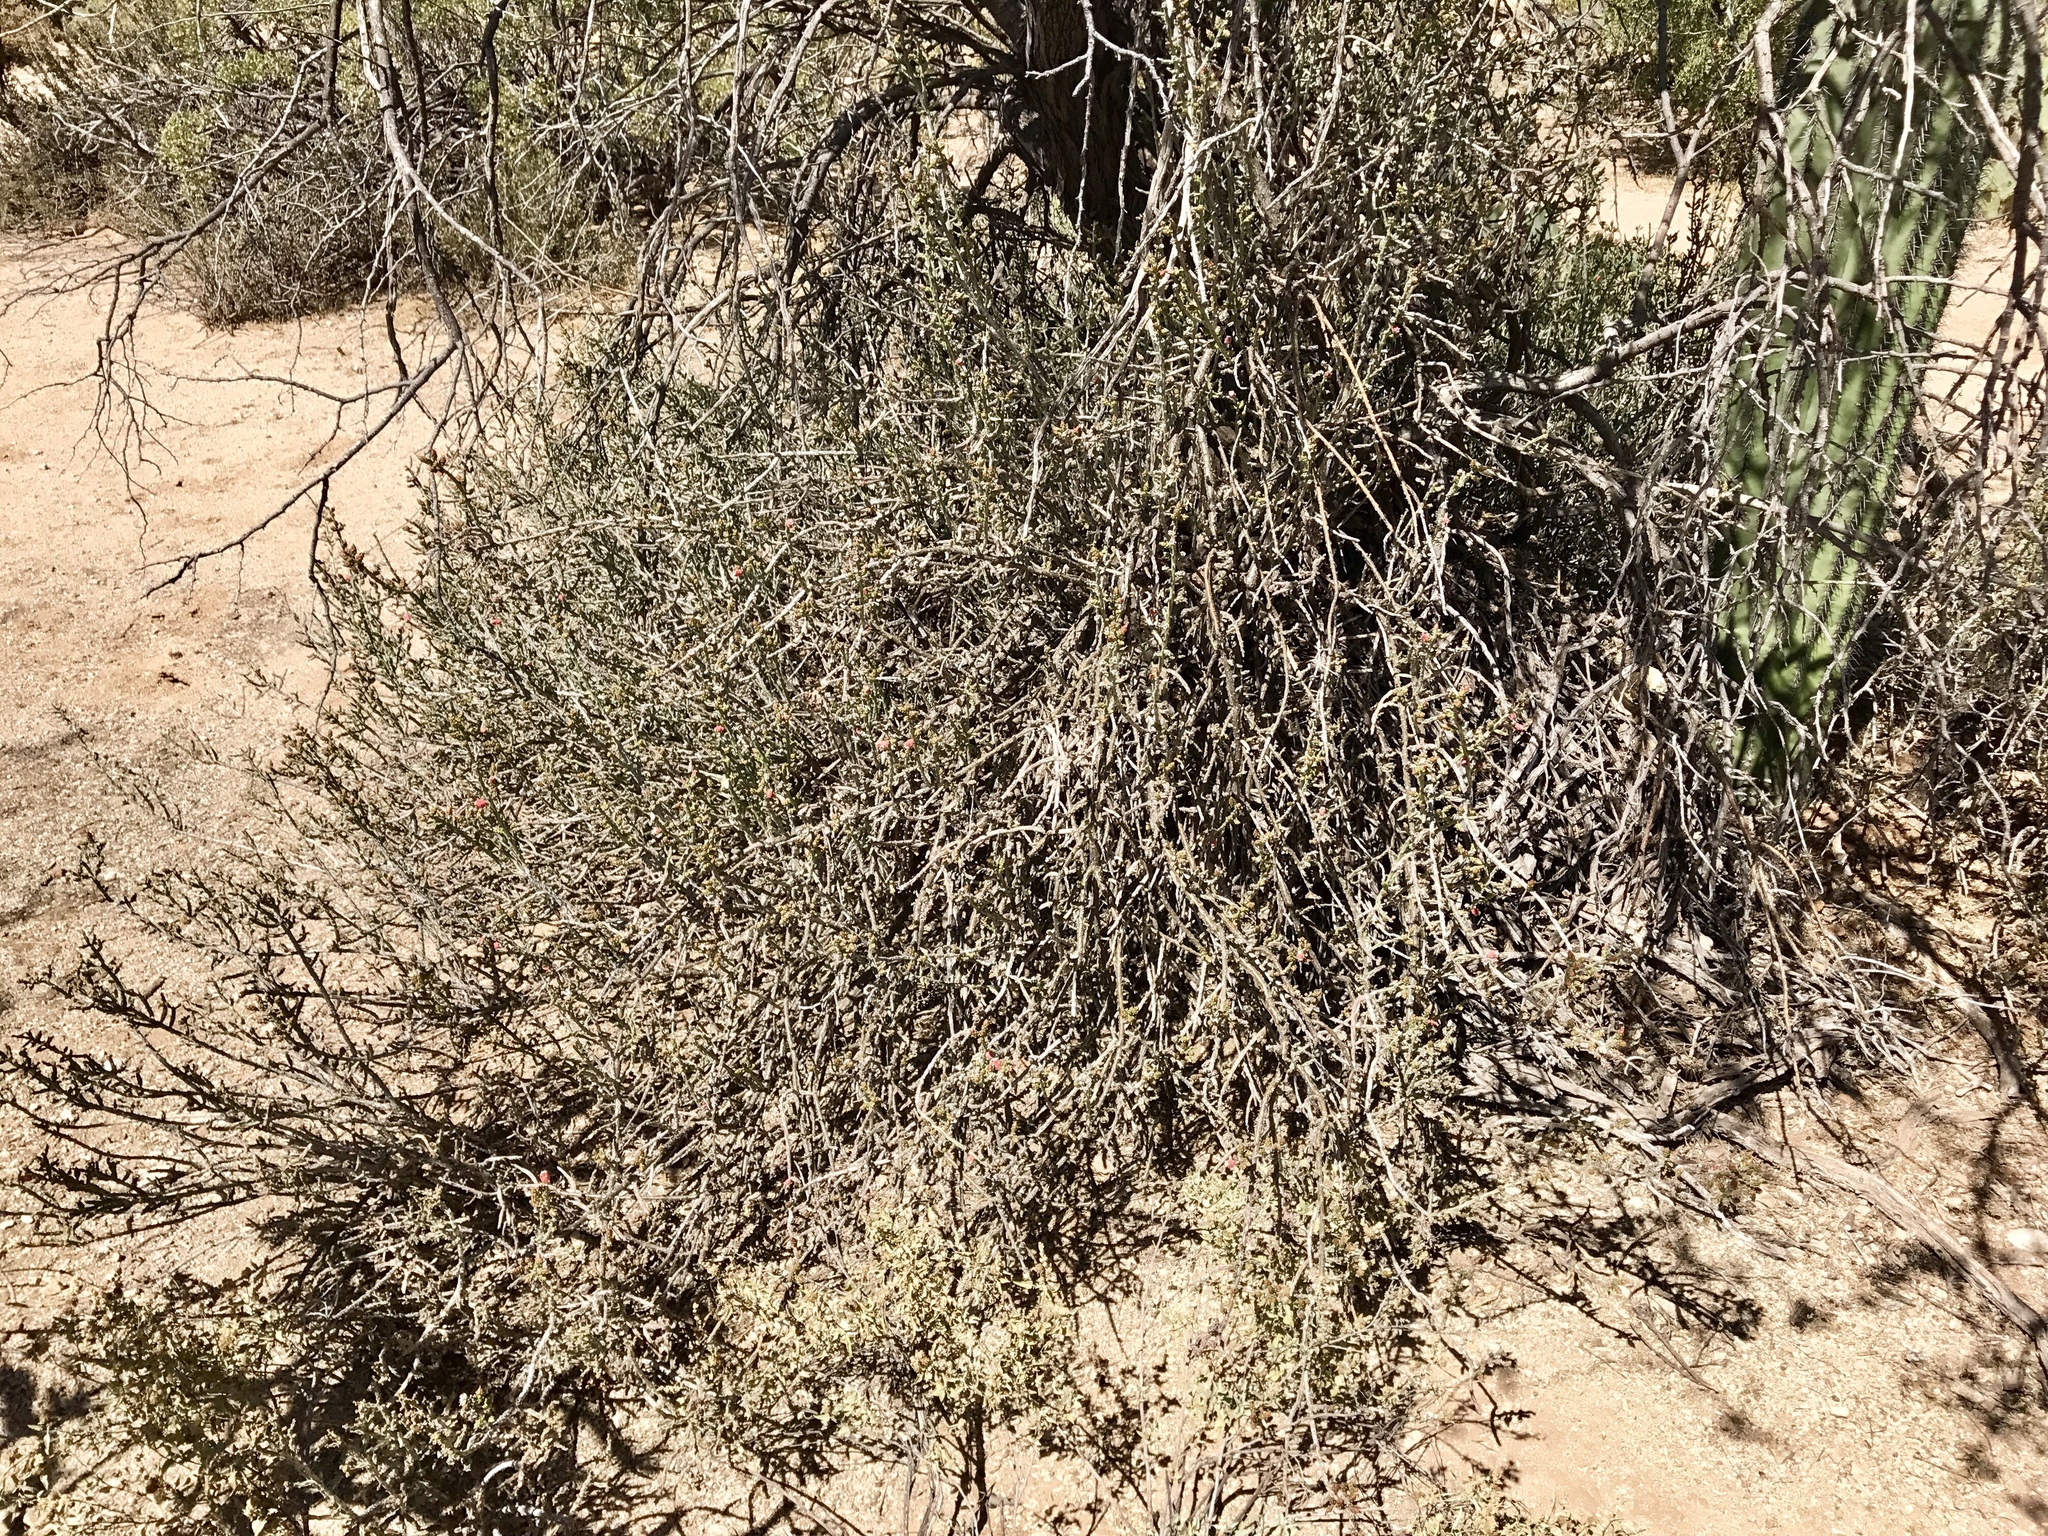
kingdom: Plantae
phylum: Tracheophyta
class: Magnoliopsida
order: Caryophyllales
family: Cactaceae
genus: Cylindropuntia
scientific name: Cylindropuntia leptocaulis
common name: Christmas cactus
